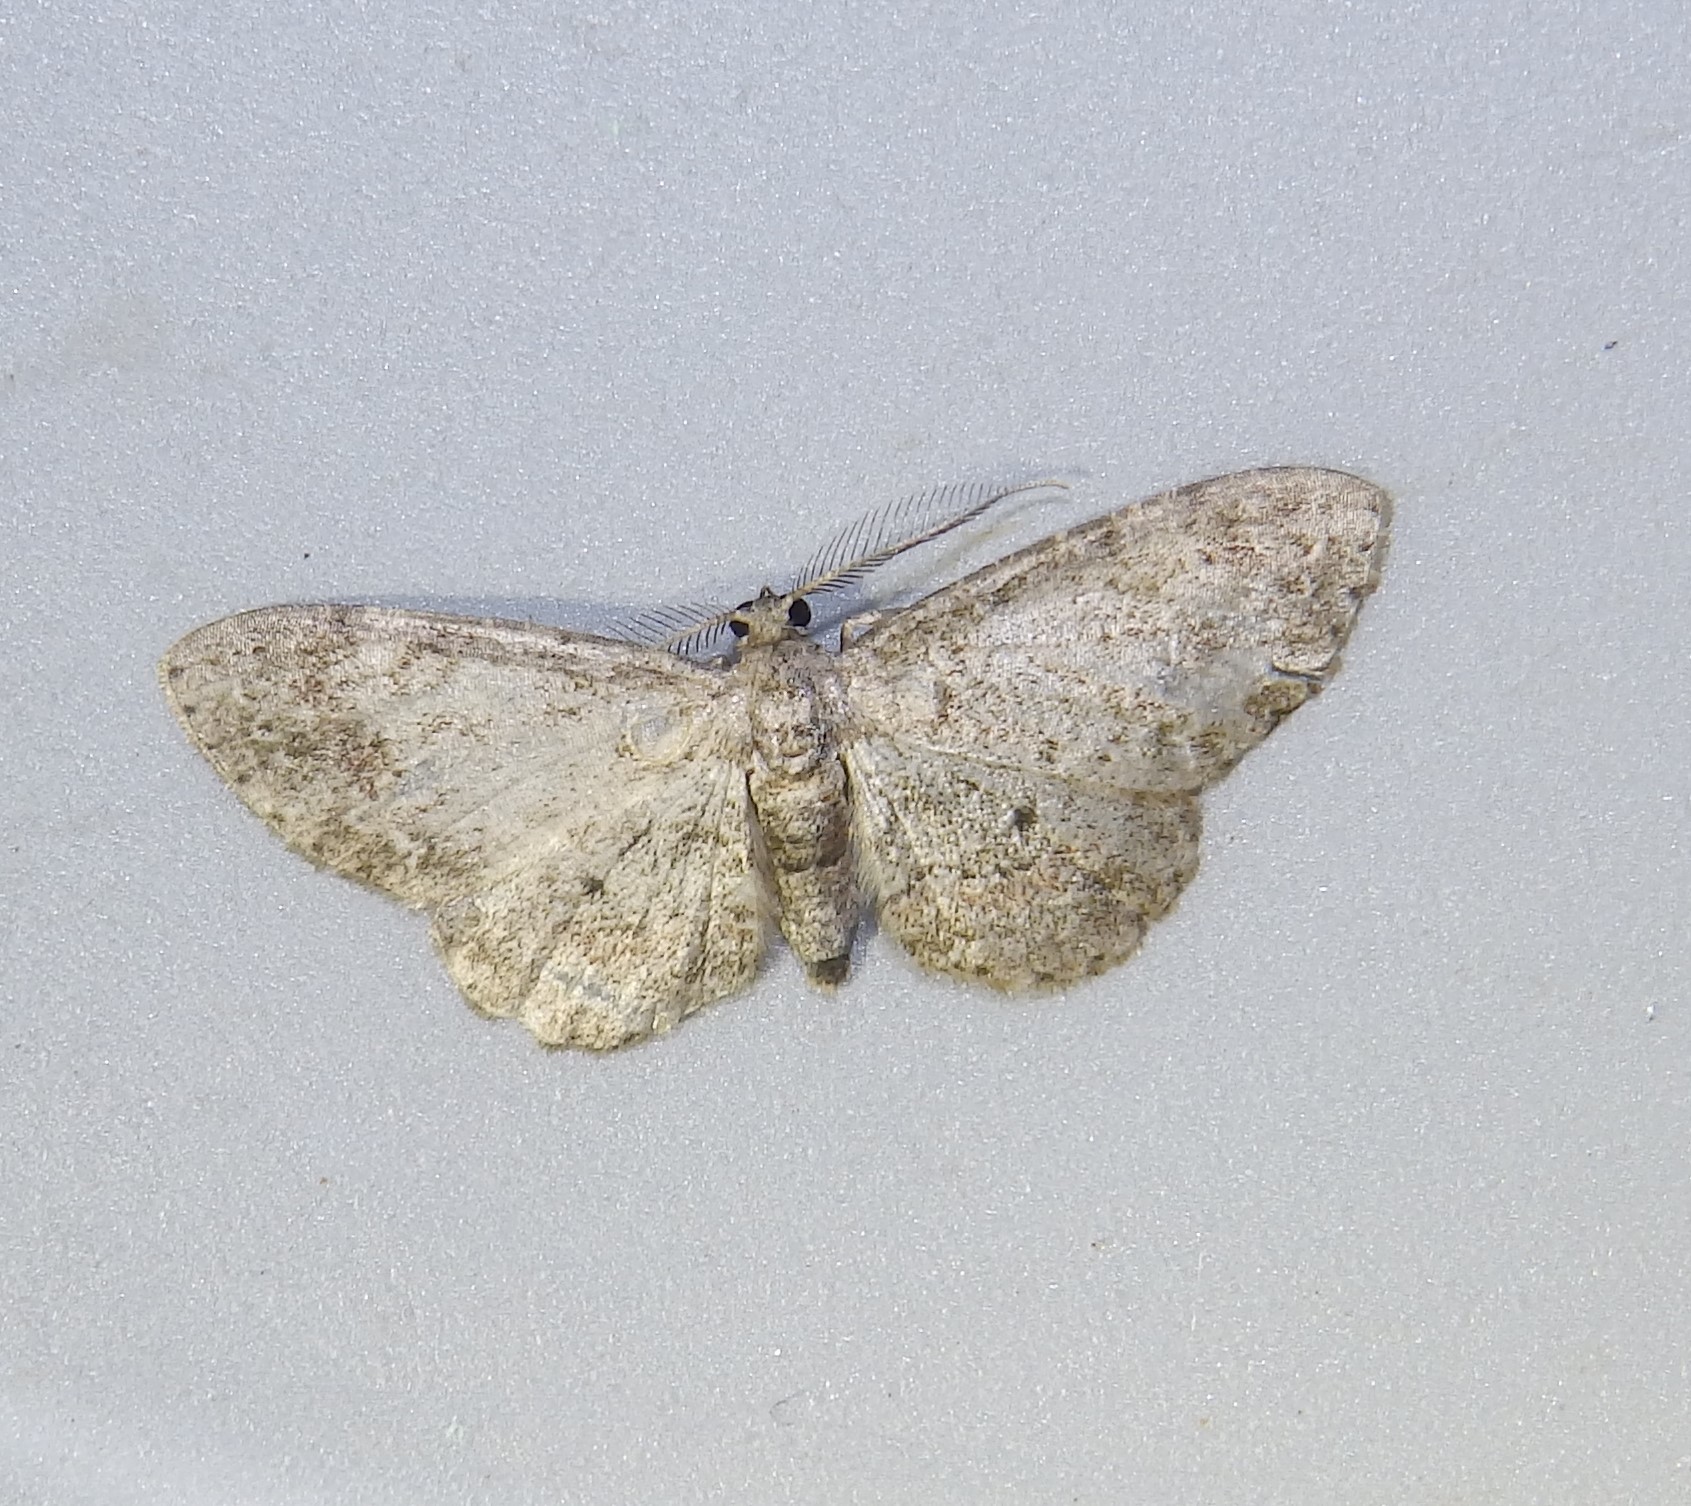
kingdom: Animalia
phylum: Arthropoda
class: Insecta
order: Lepidoptera
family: Geometridae
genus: Glenoides
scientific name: Glenoides texanaria
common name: Texas gray
